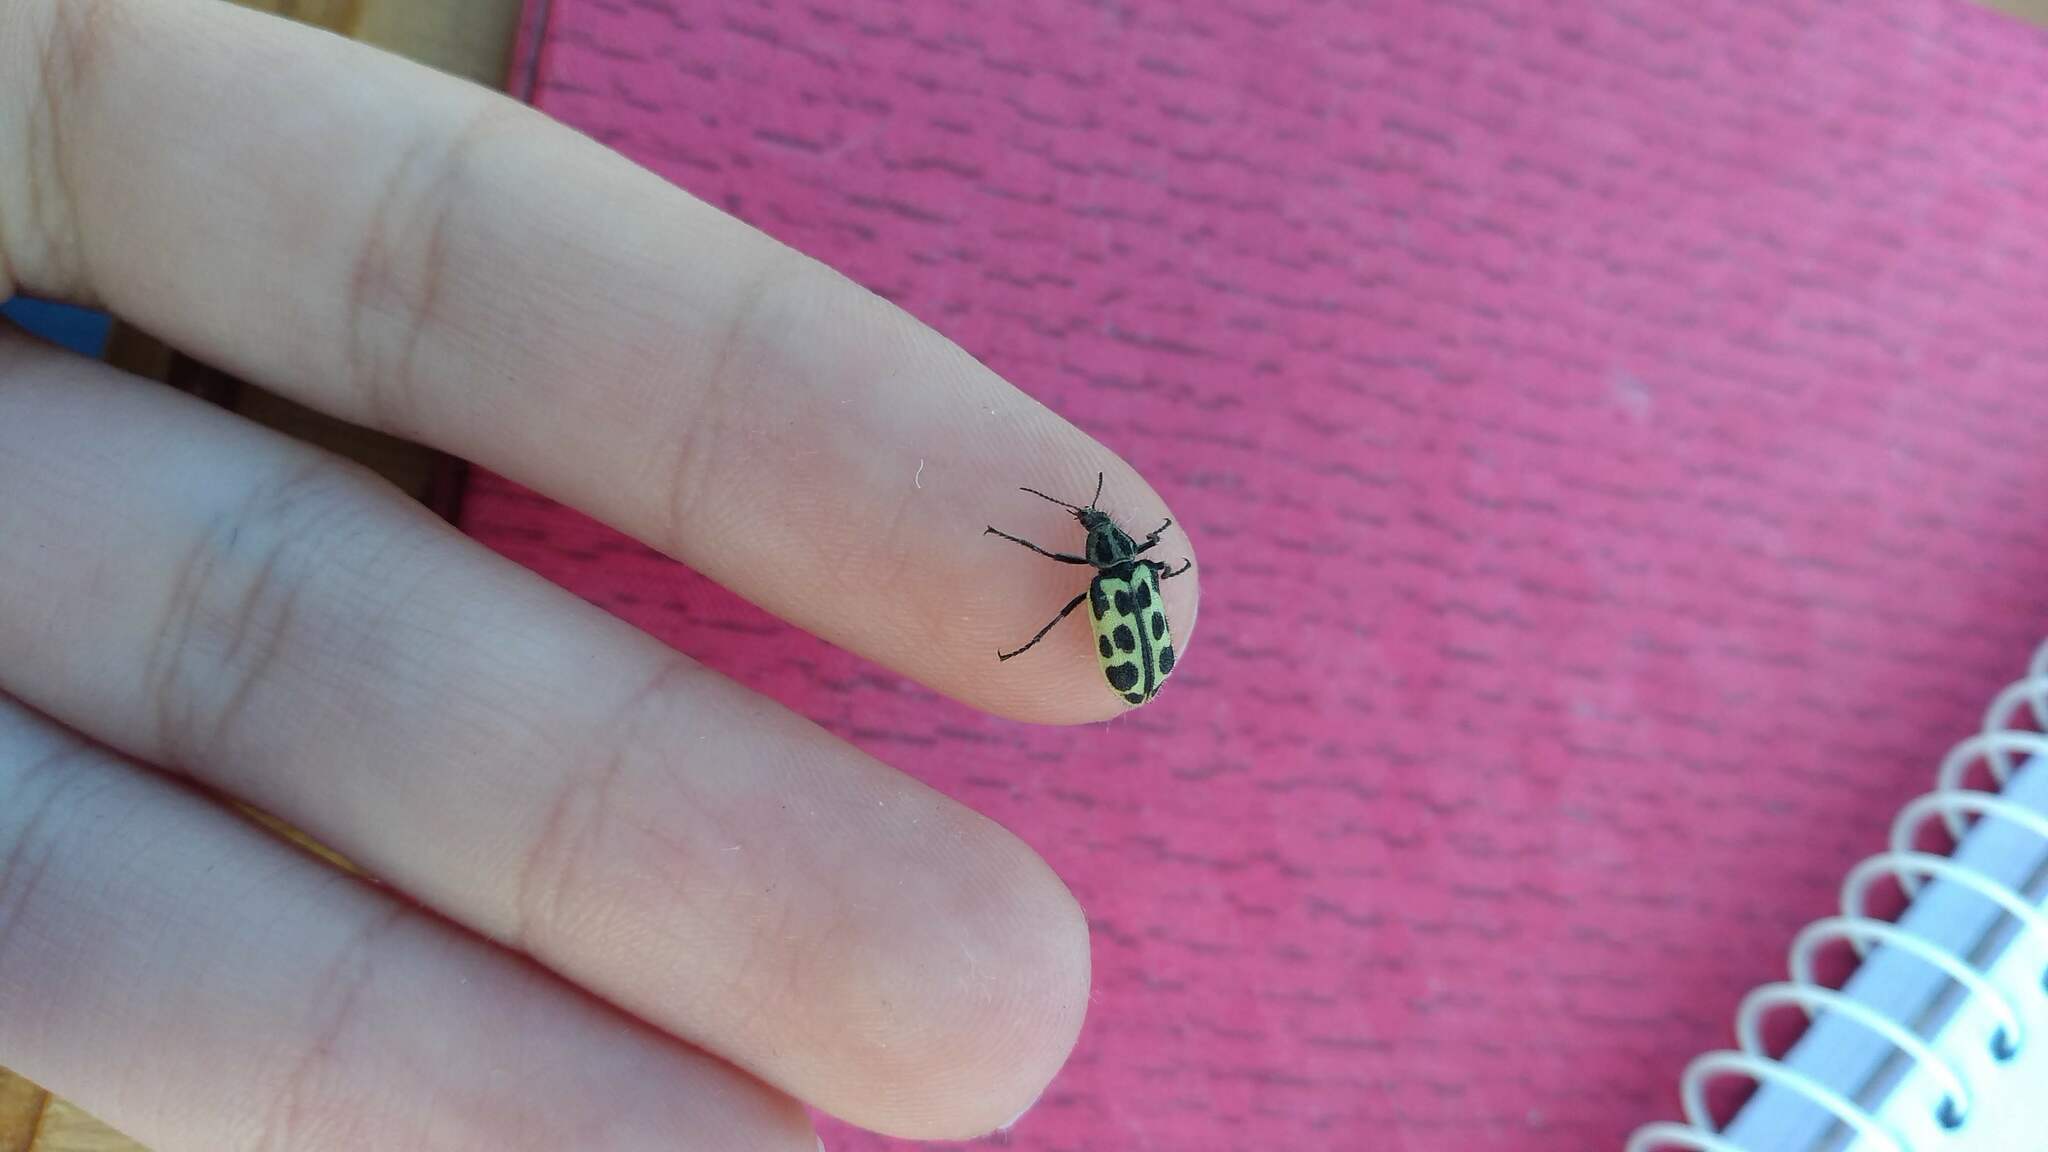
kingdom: Animalia
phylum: Arthropoda
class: Insecta
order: Coleoptera
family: Melyridae
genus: Astylus
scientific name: Astylus atromaculatus
